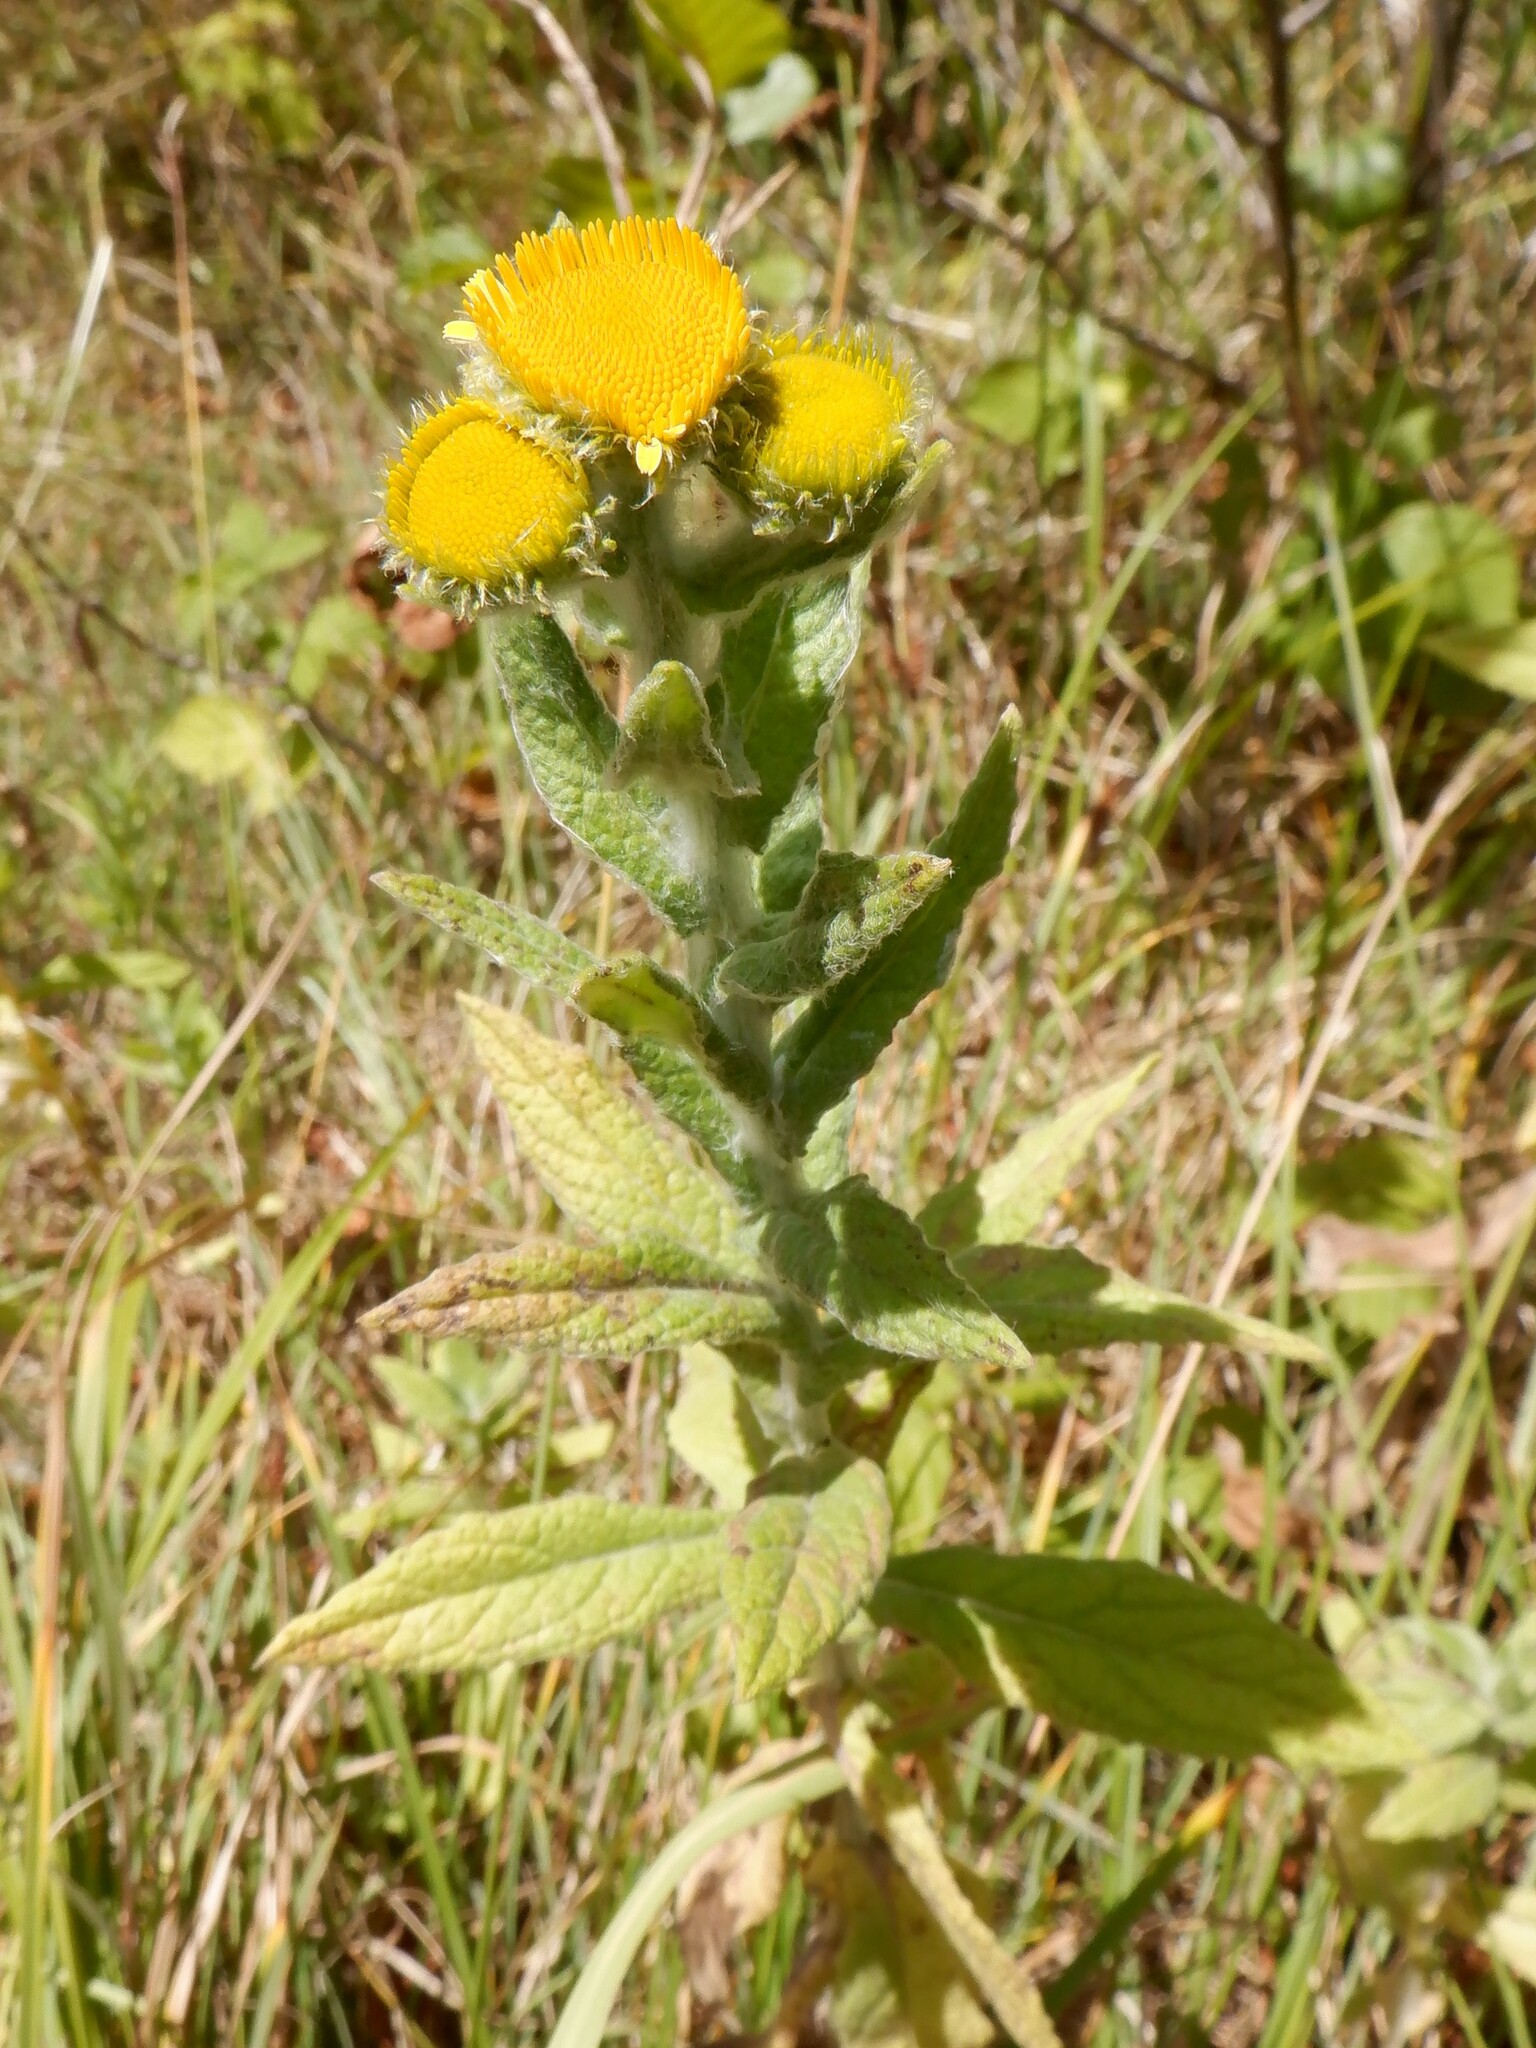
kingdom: Plantae
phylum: Tracheophyta
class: Magnoliopsida
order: Asterales
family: Asteraceae
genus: Pulicaria
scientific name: Pulicaria dysenterica
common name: Common fleabane
